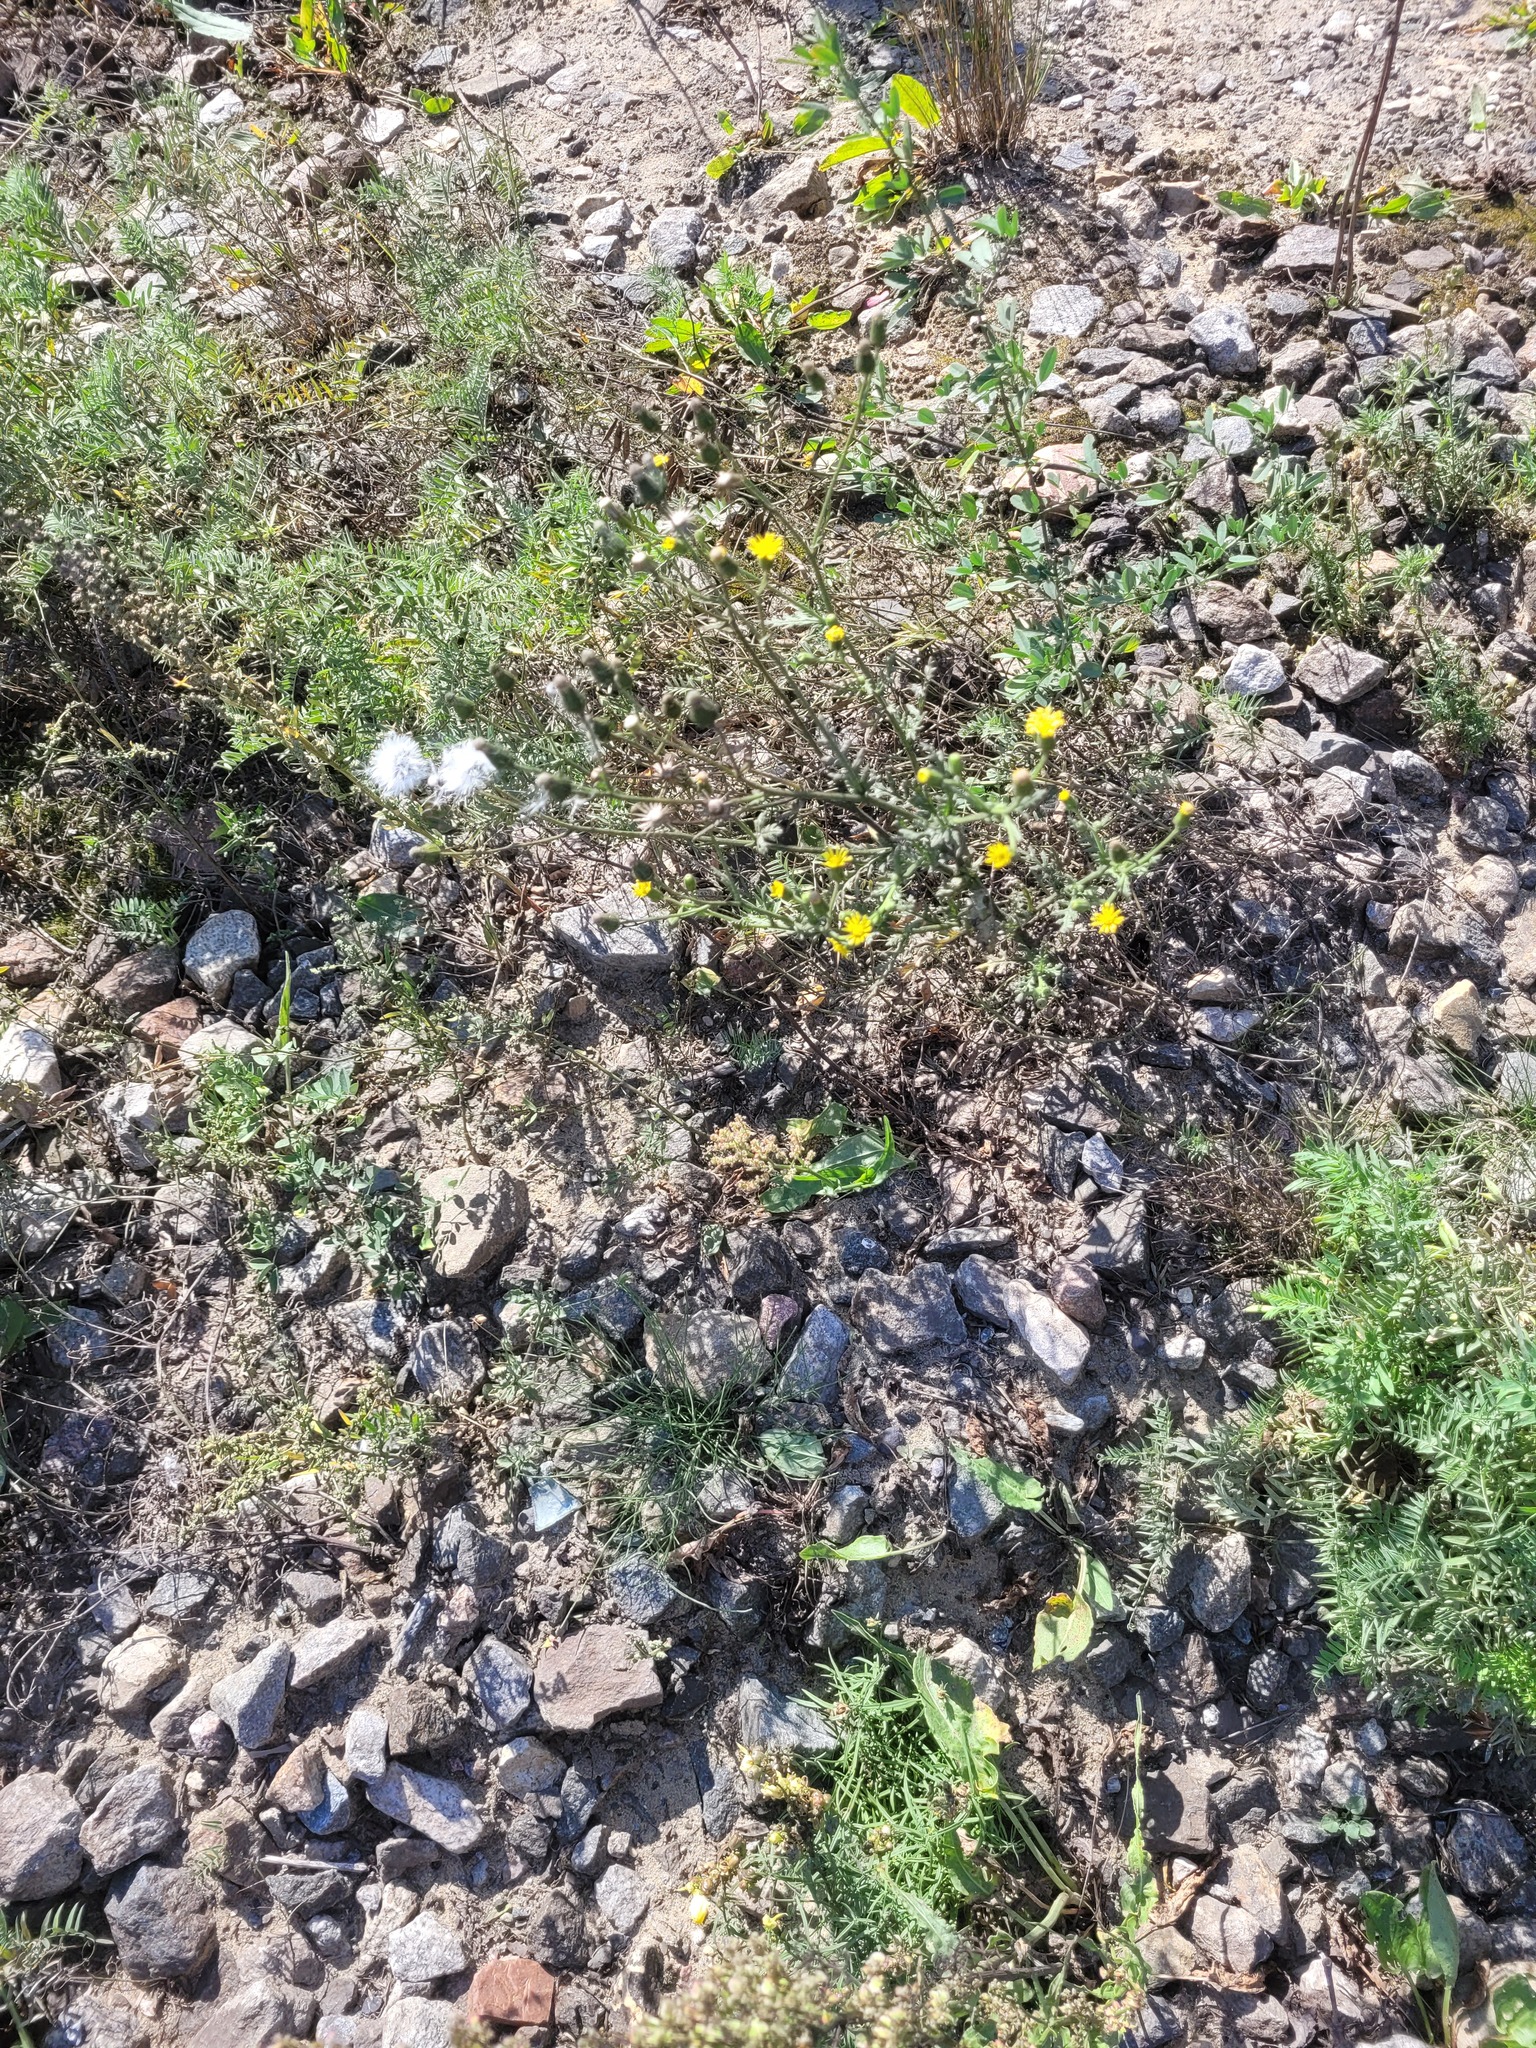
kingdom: Plantae
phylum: Tracheophyta
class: Magnoliopsida
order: Caryophyllales
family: Polygonaceae
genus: Rumex
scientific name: Rumex thyrsiflorus
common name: Garden sorrel
